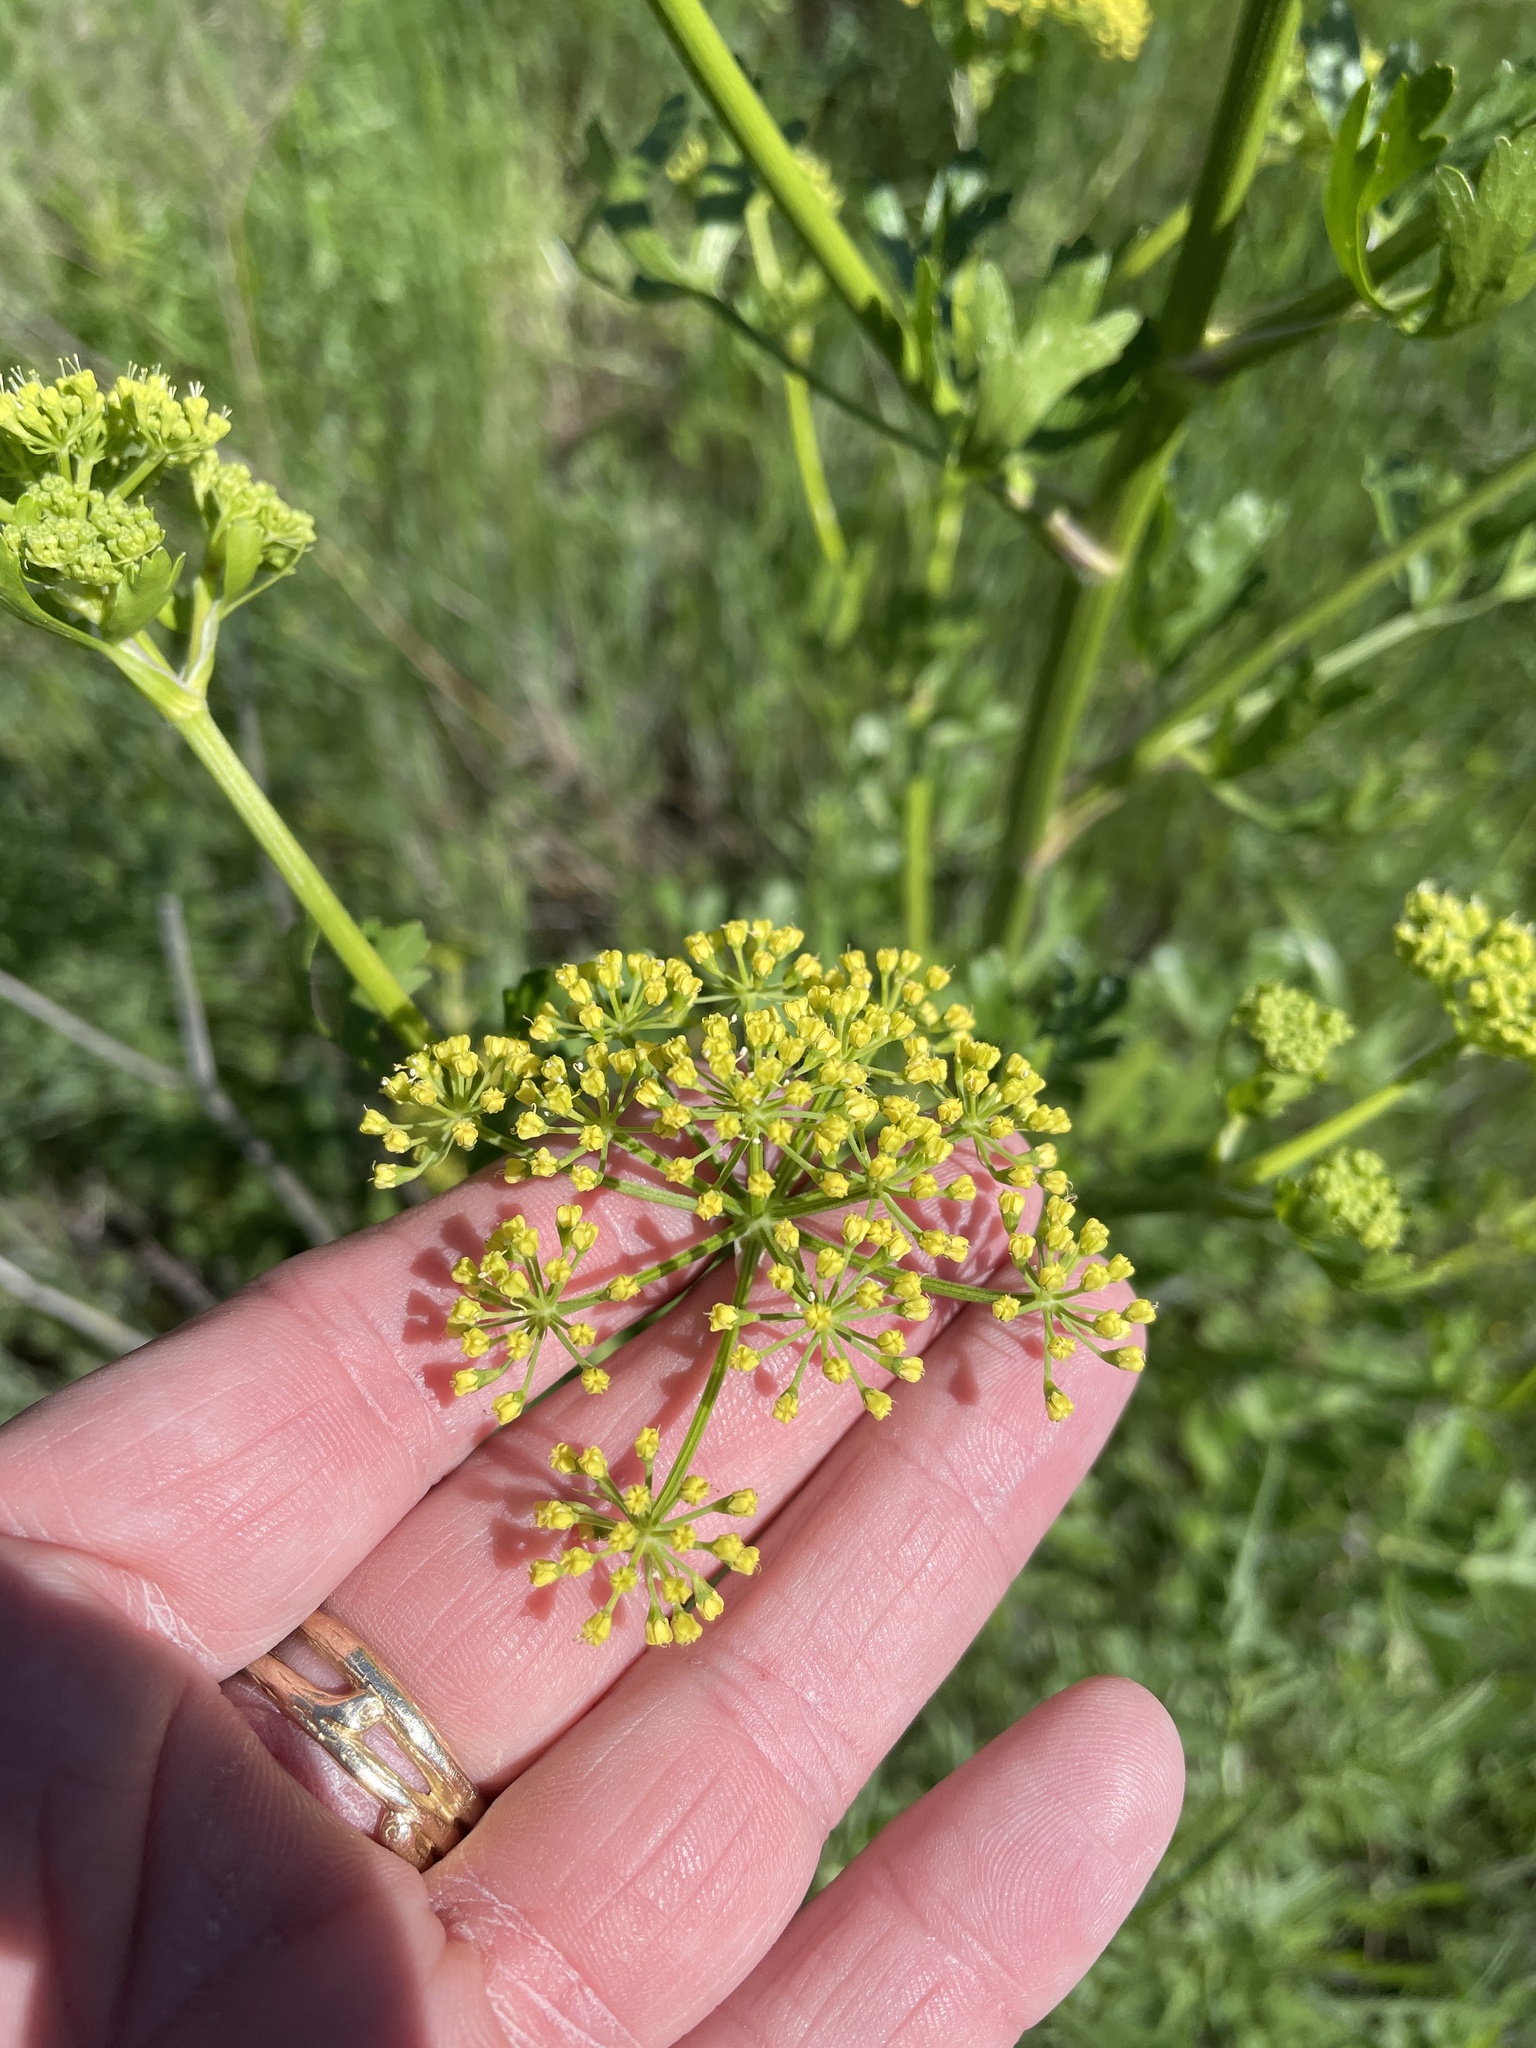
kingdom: Plantae
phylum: Tracheophyta
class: Magnoliopsida
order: Apiales
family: Apiaceae
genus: Polytaenia
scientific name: Polytaenia texana
